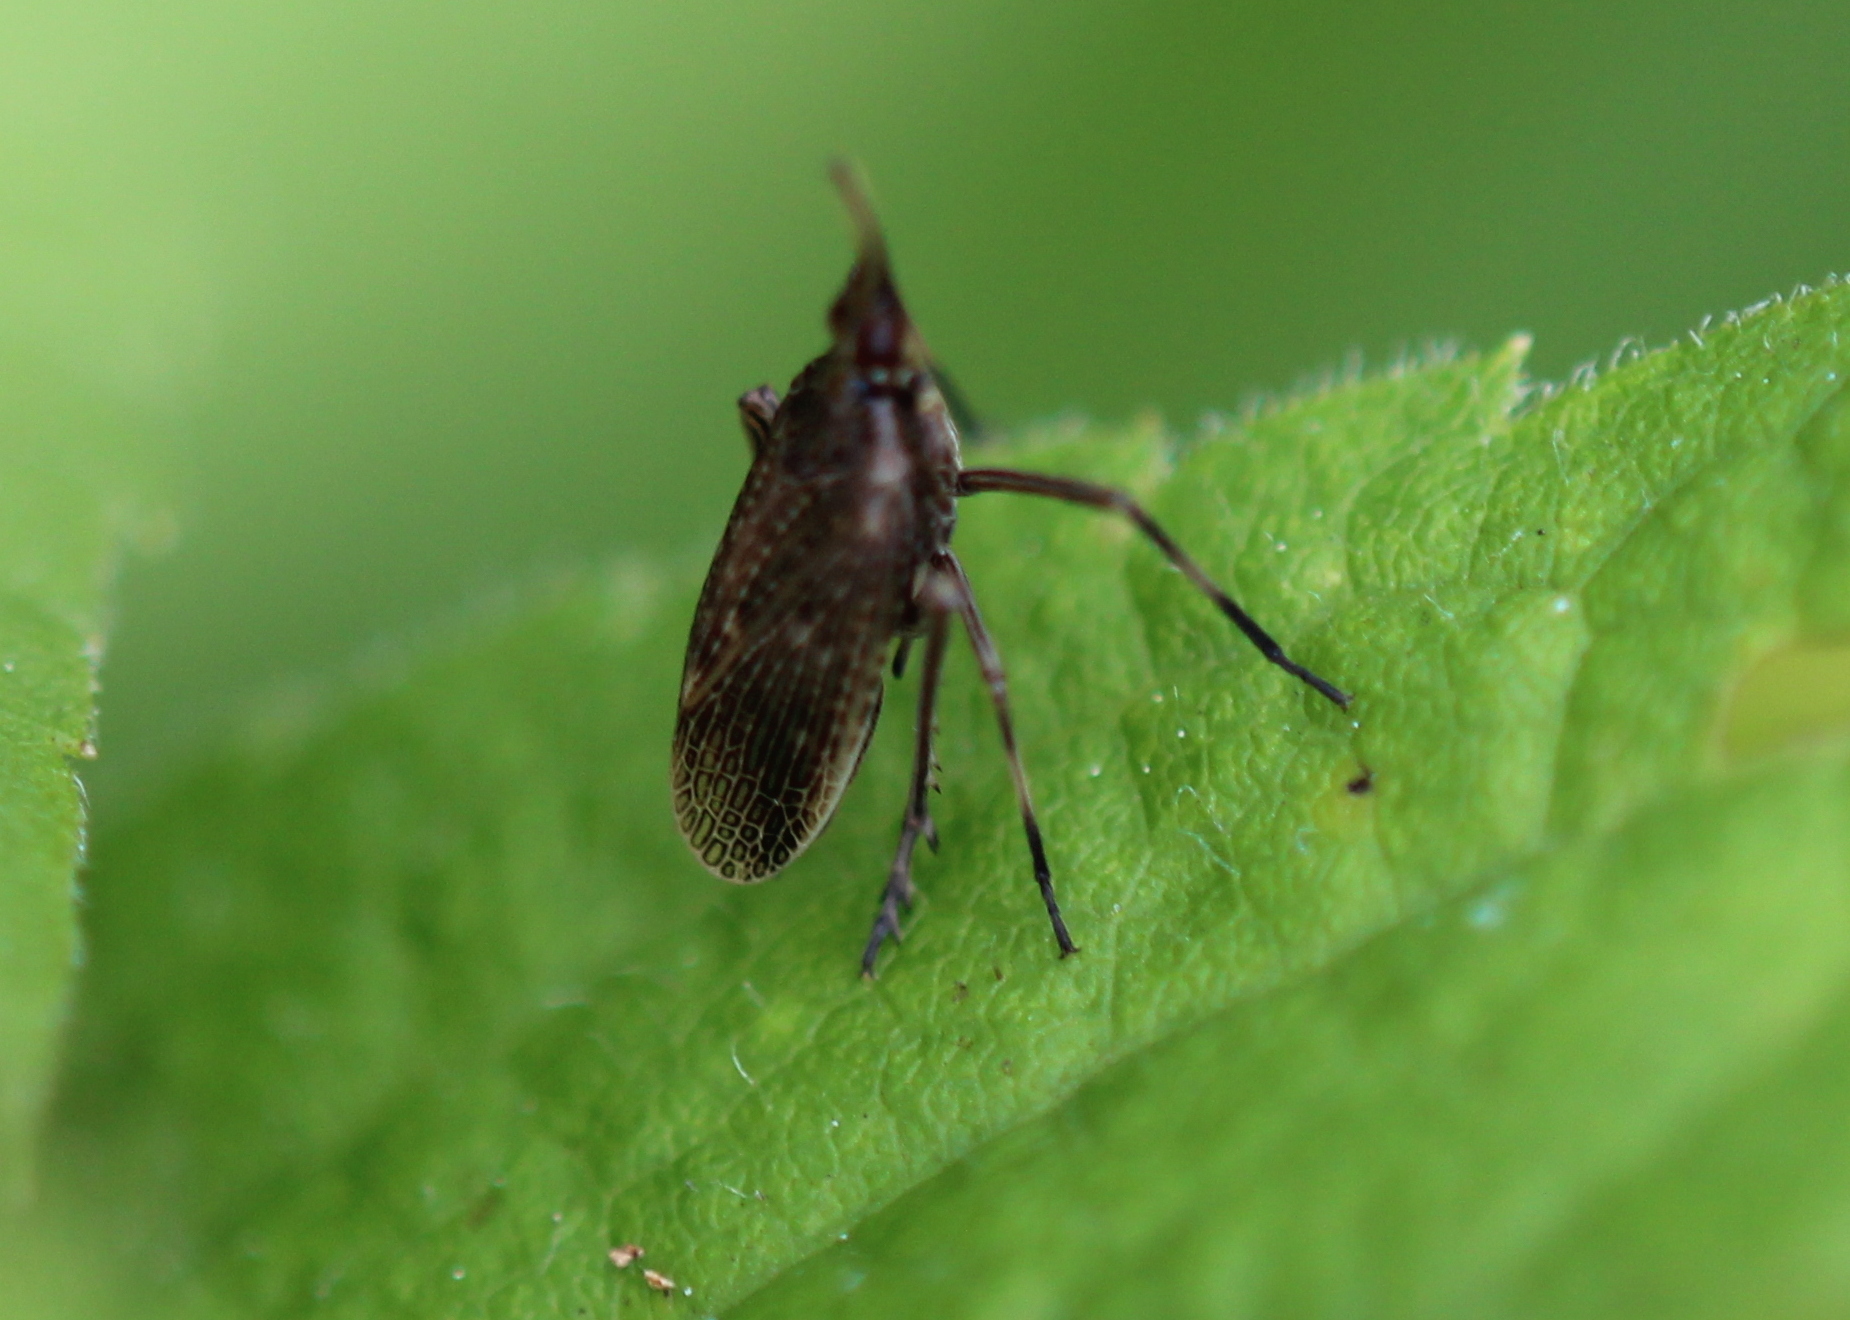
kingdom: Animalia
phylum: Arthropoda
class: Insecta
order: Hemiptera
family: Dictyopharidae
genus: Scolops
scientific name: Scolops sulcipes
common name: Partridge planthopper
